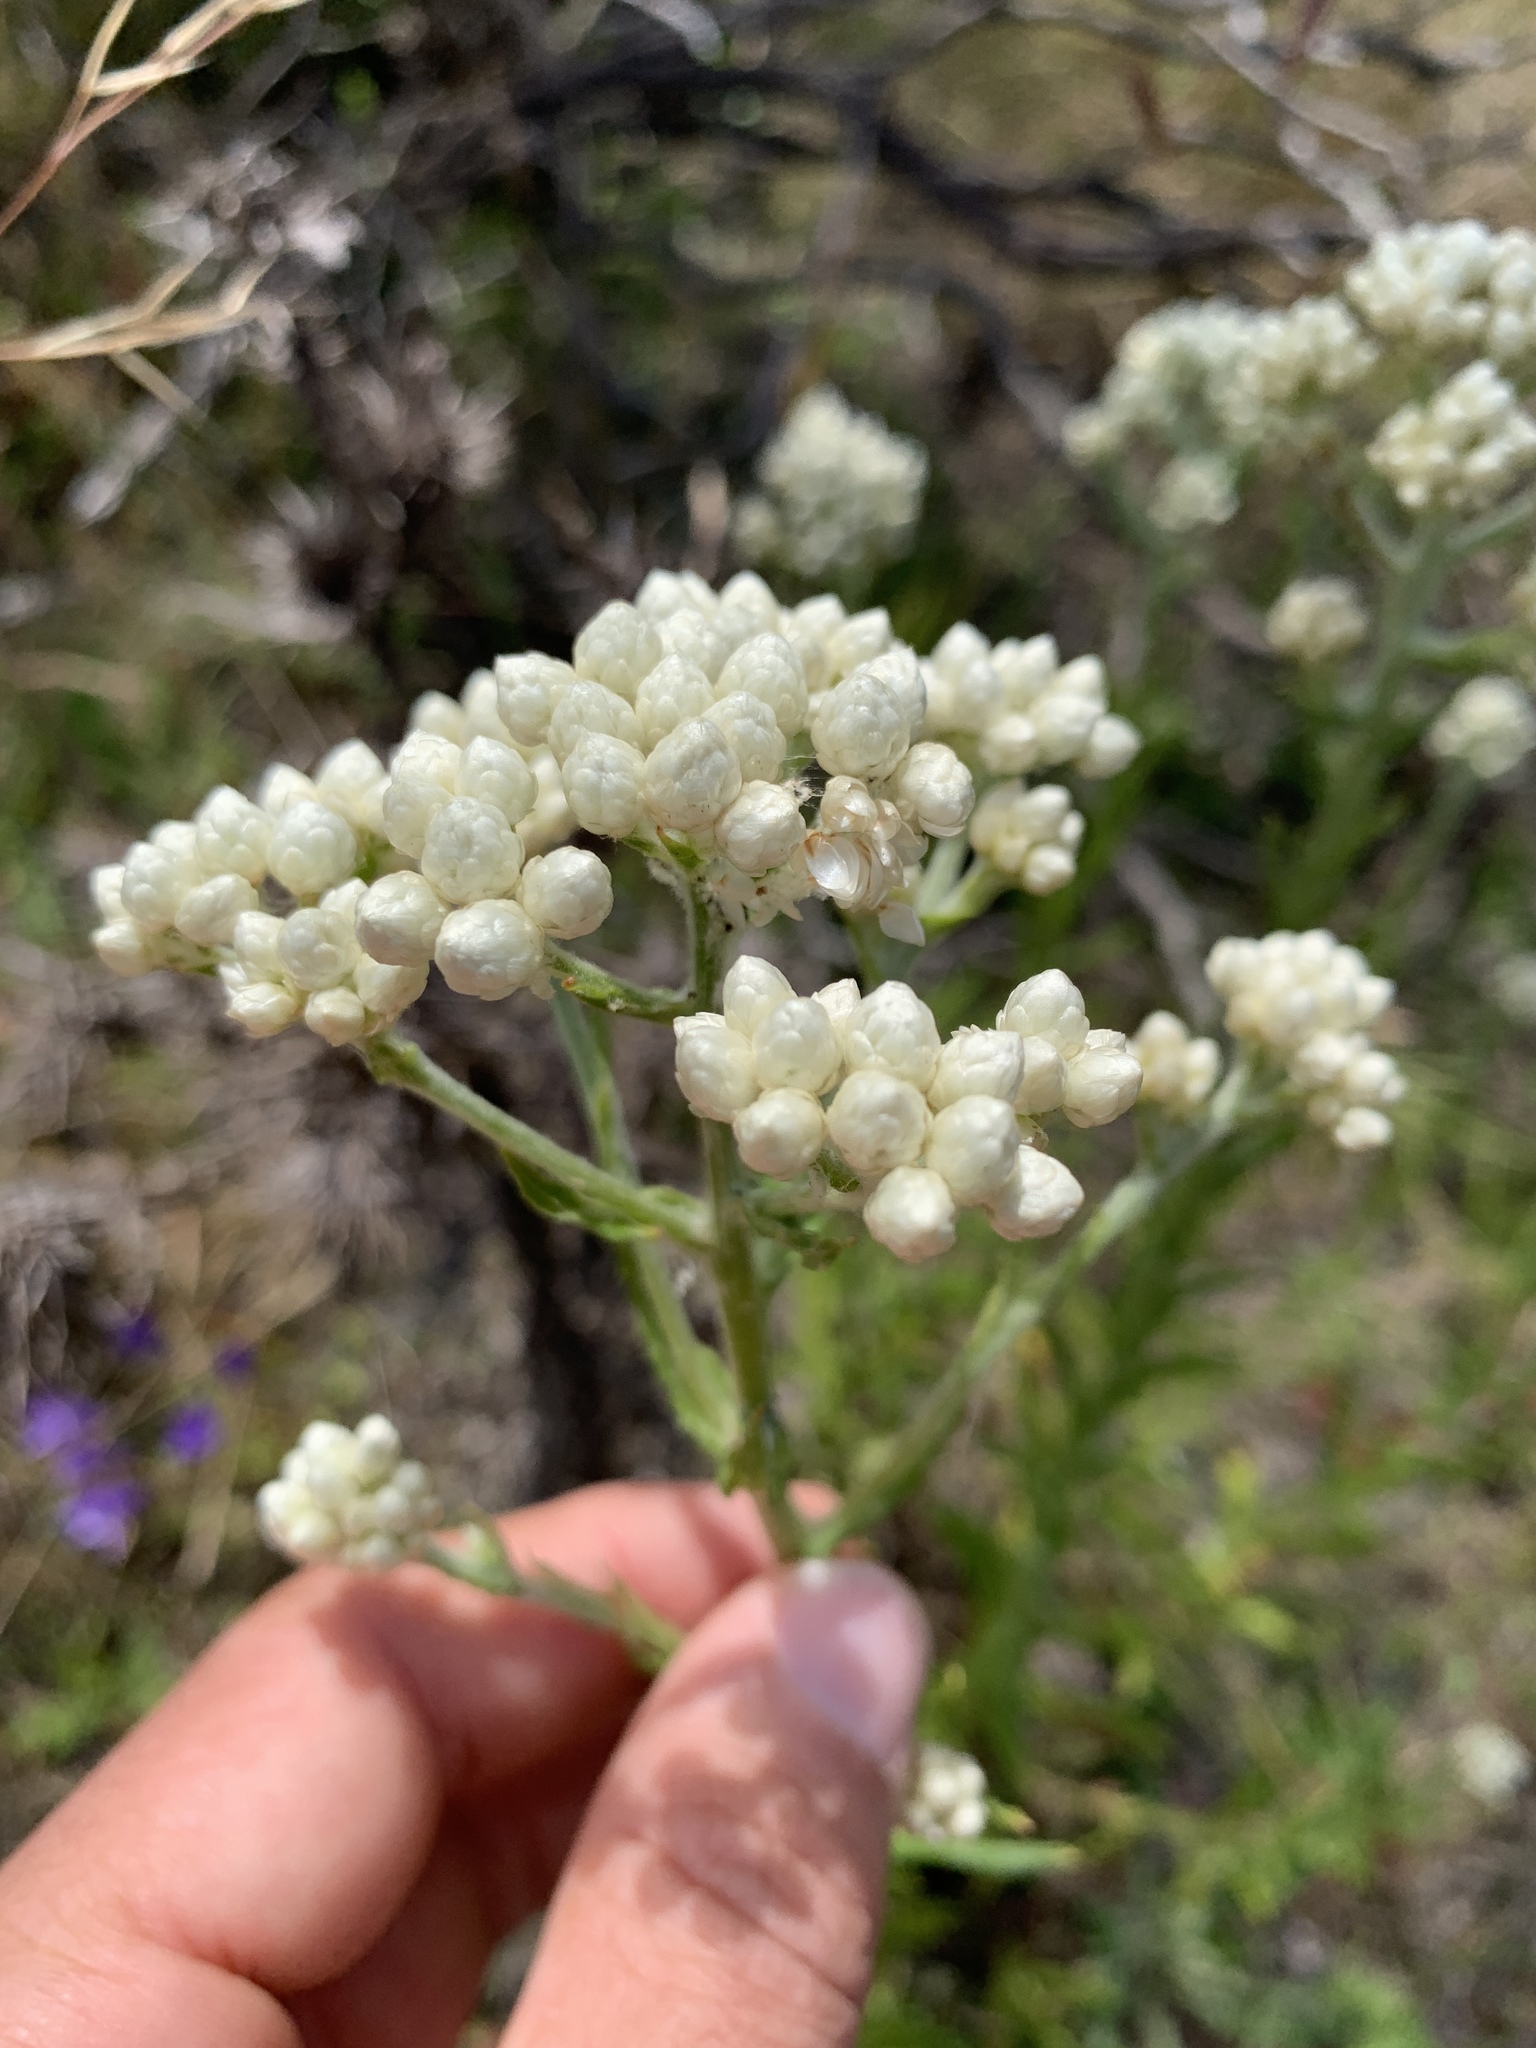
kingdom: Plantae
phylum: Tracheophyta
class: Magnoliopsida
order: Asterales
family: Asteraceae
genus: Pseudognaphalium
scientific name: Pseudognaphalium californicum
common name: California rabbit-tobacco
